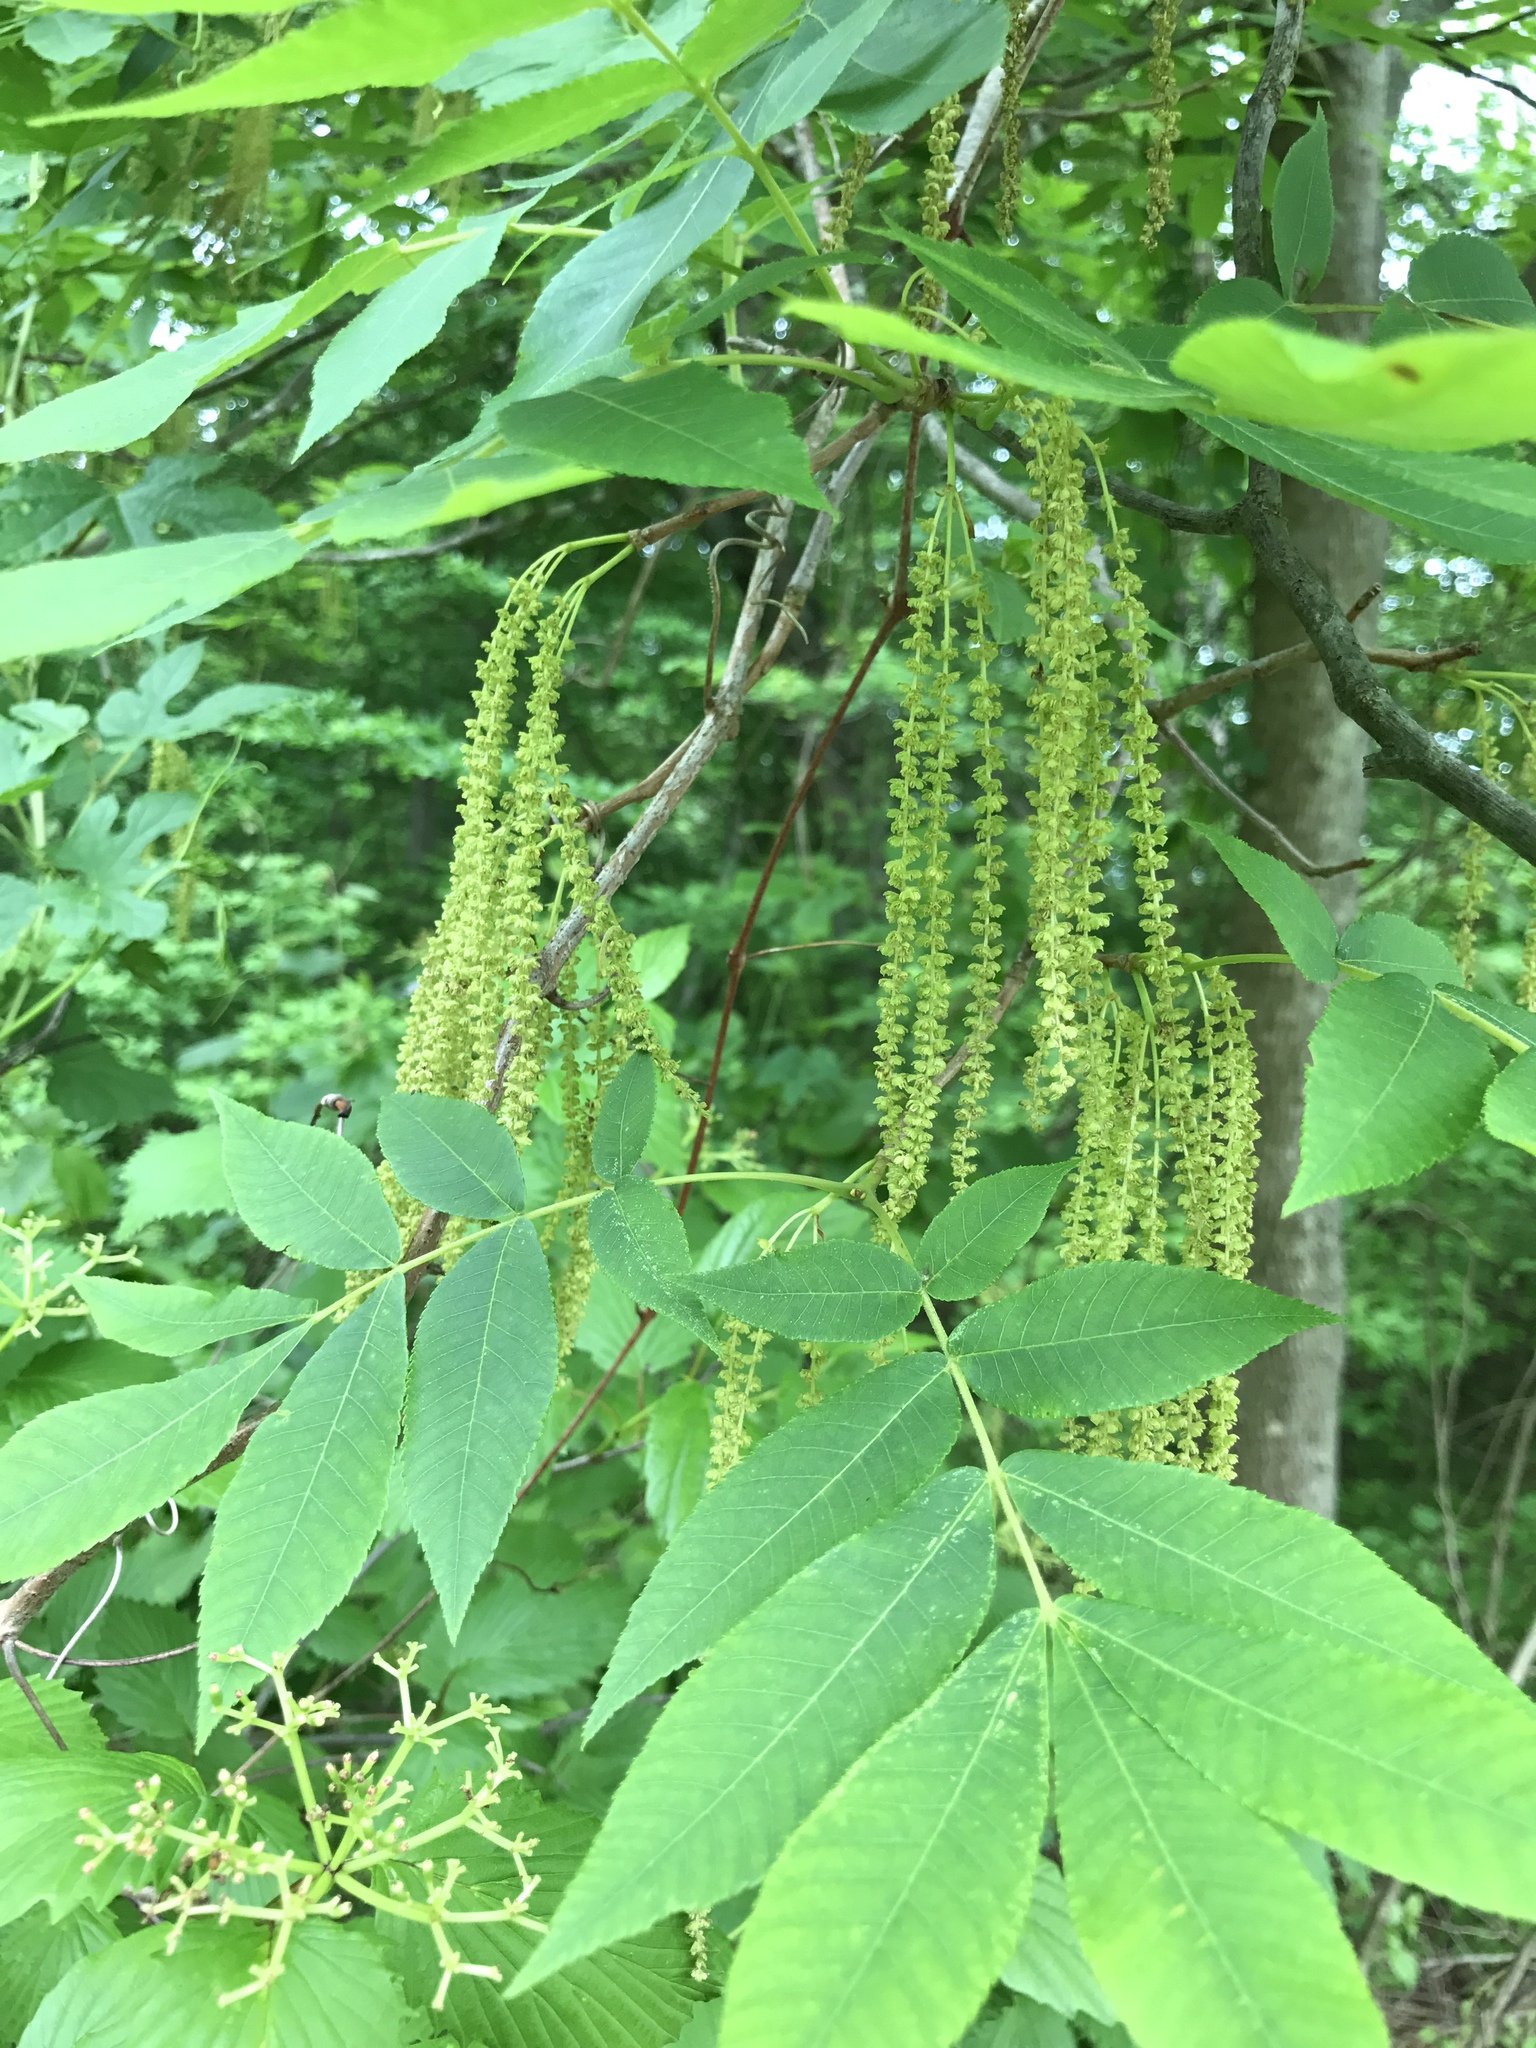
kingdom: Plantae
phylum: Tracheophyta
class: Magnoliopsida
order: Fagales
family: Juglandaceae
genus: Carya
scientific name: Carya cordiformis
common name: Bitternut hickory
